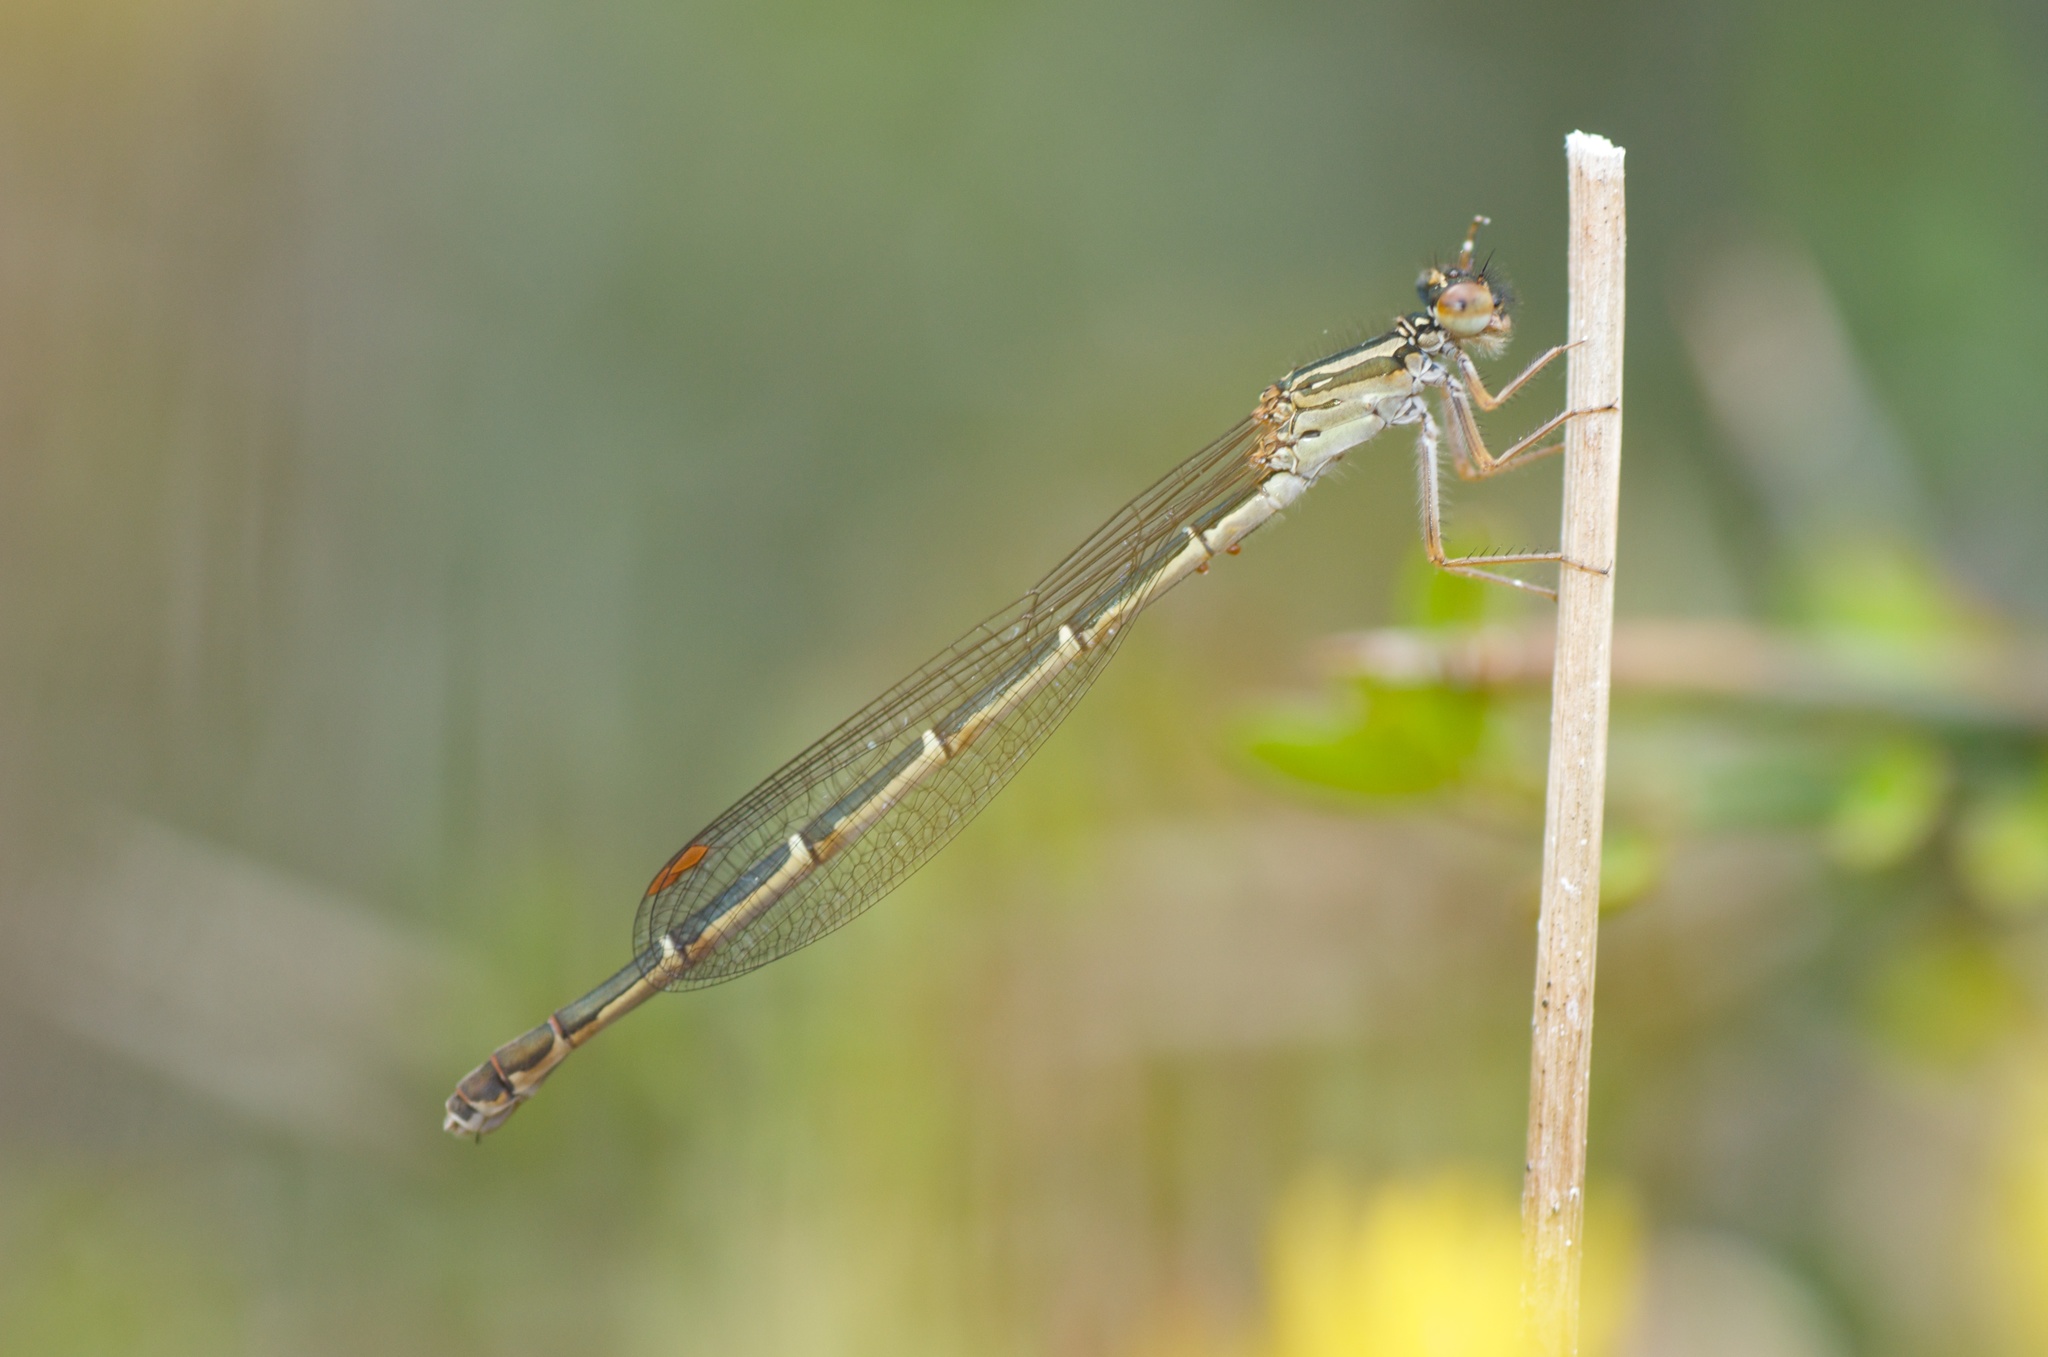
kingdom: Animalia
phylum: Arthropoda
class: Insecta
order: Odonata
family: Coenagrionidae
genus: Xanthocnemis
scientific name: Xanthocnemis zealandica
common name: Common redcoat damselfly
